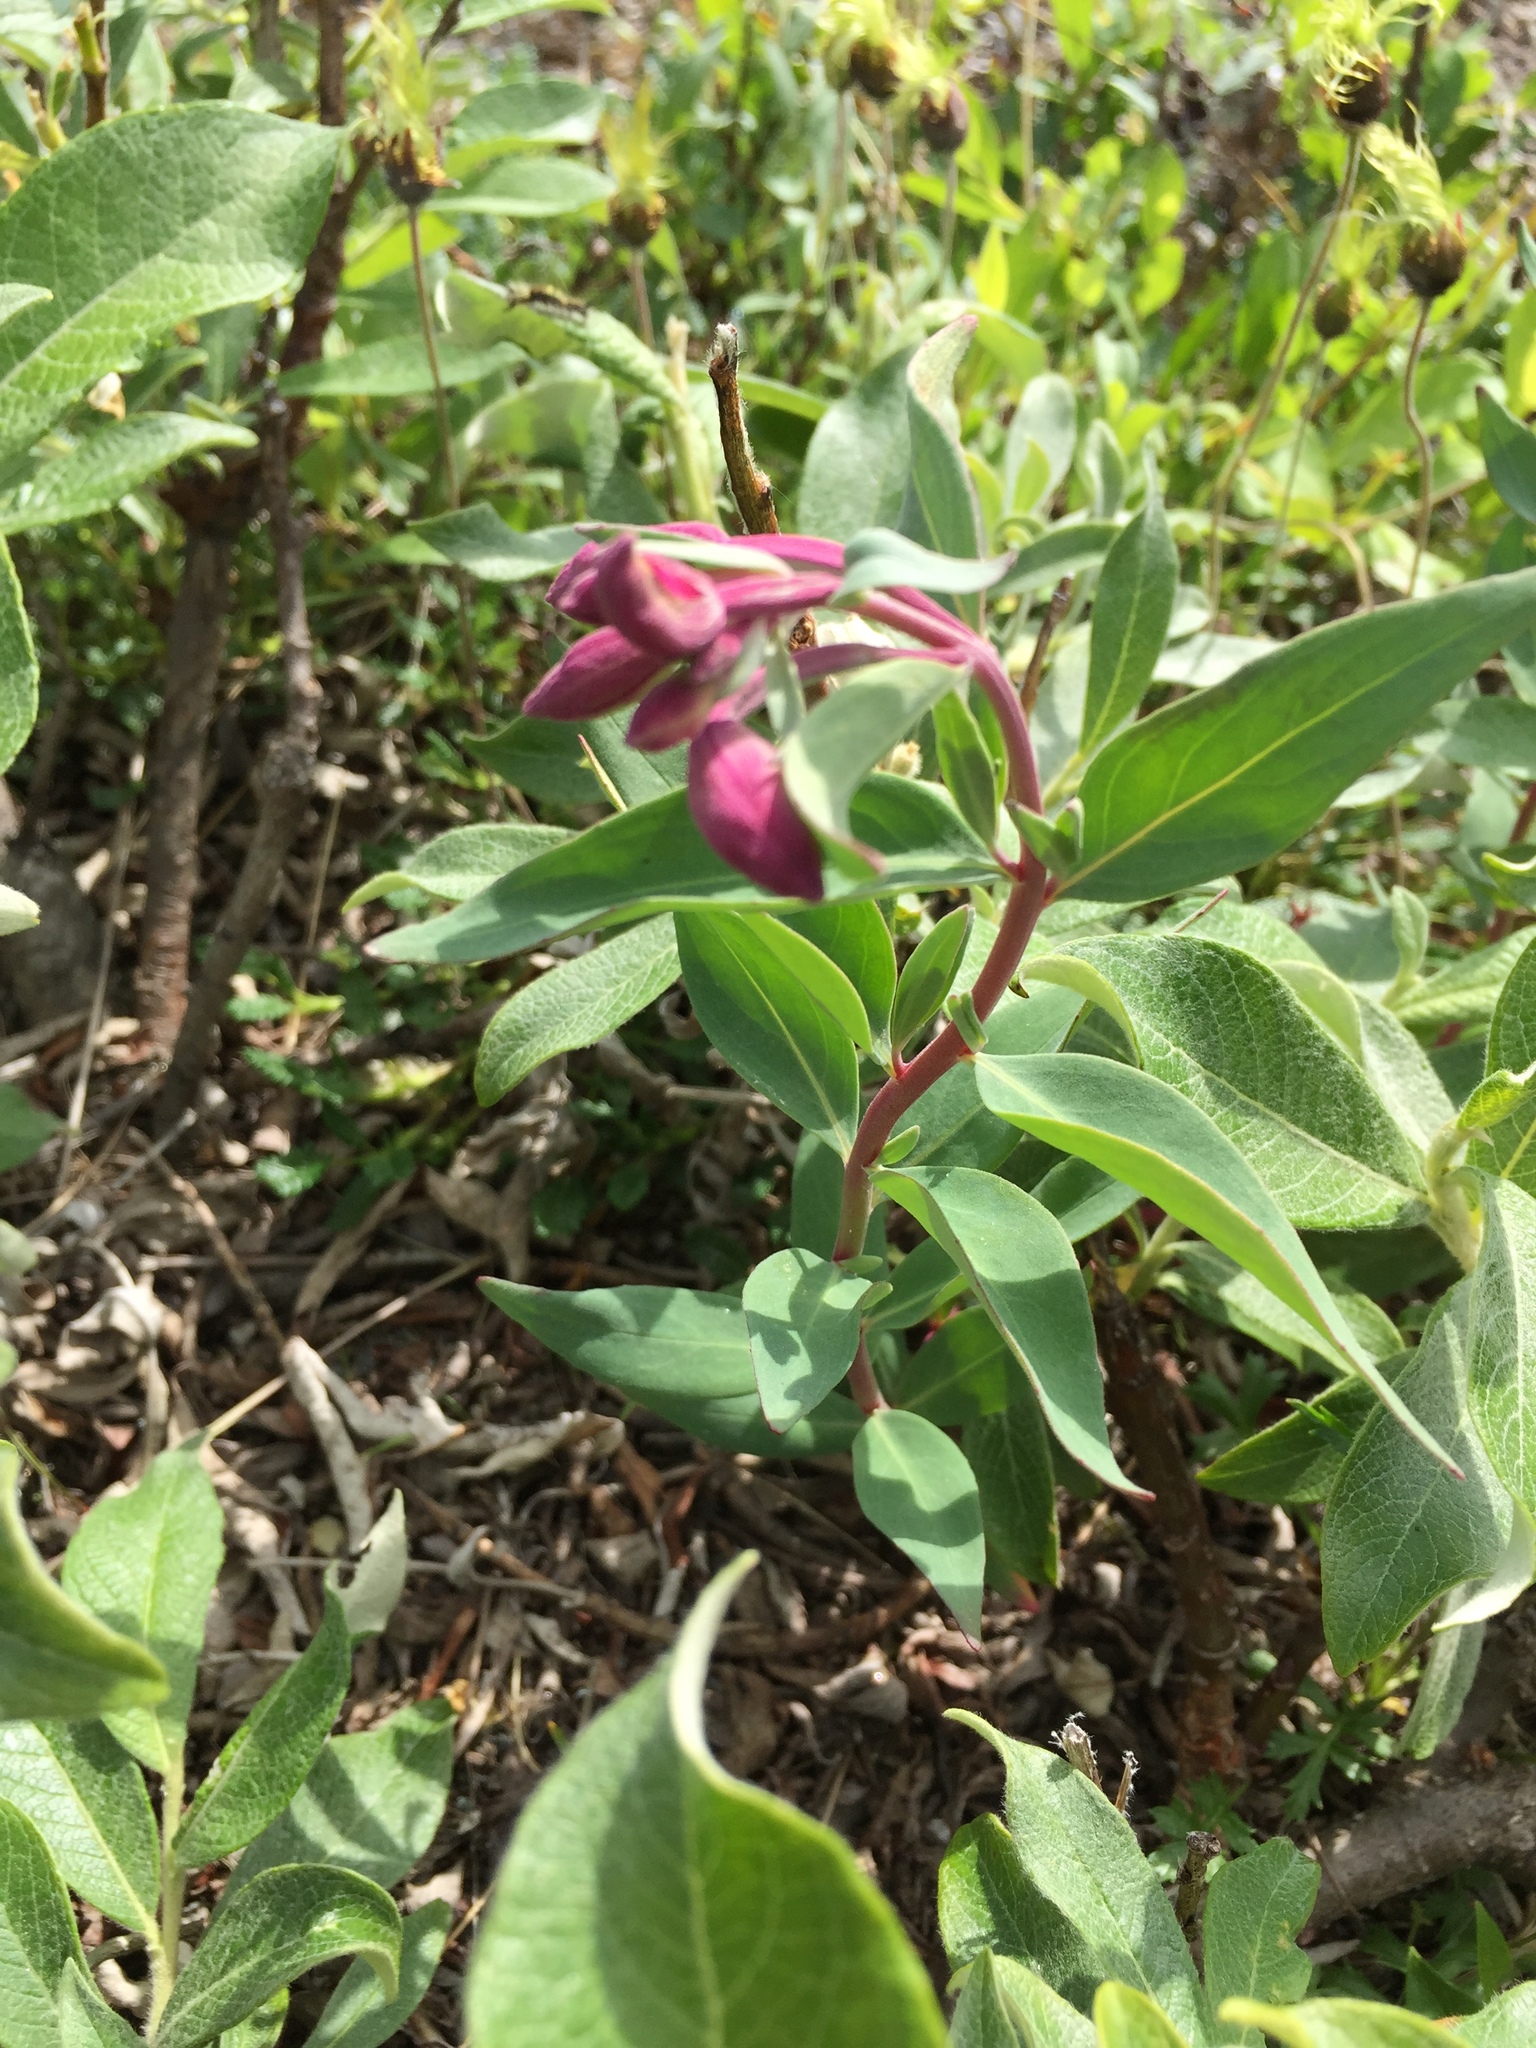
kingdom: Plantae
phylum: Tracheophyta
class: Magnoliopsida
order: Myrtales
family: Onagraceae
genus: Chamaenerion
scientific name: Chamaenerion latifolium
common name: Dwarf fireweed
